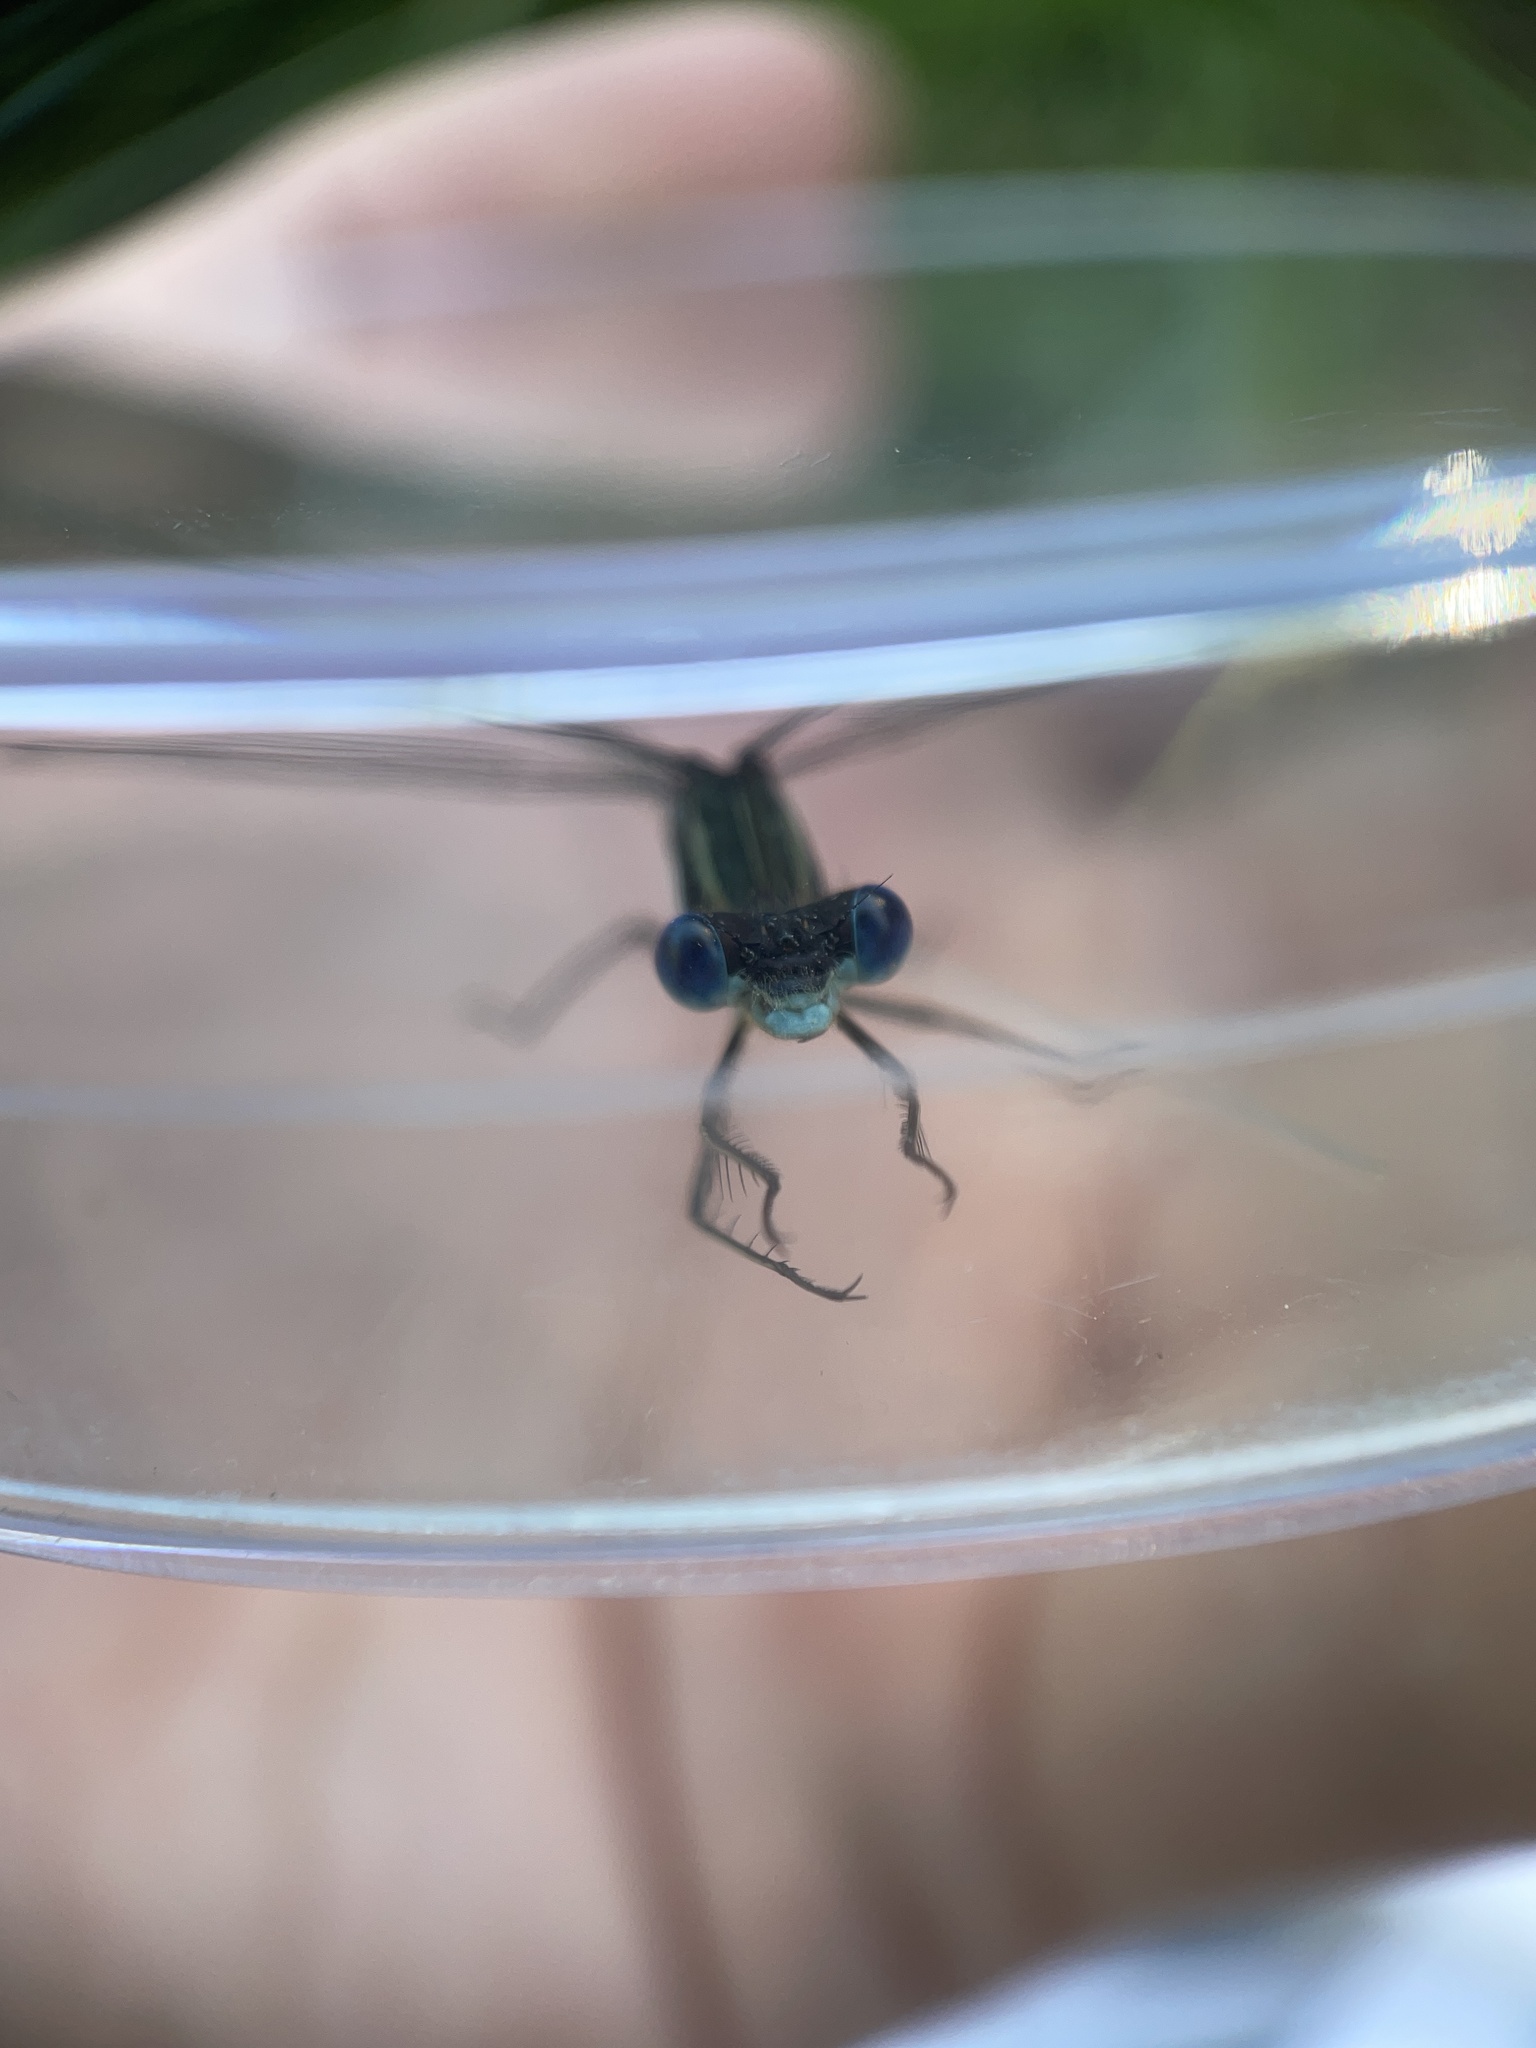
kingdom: Animalia
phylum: Arthropoda
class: Insecta
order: Odonata
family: Lestidae
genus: Lestes
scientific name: Lestes australis
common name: Southern spreadwing
